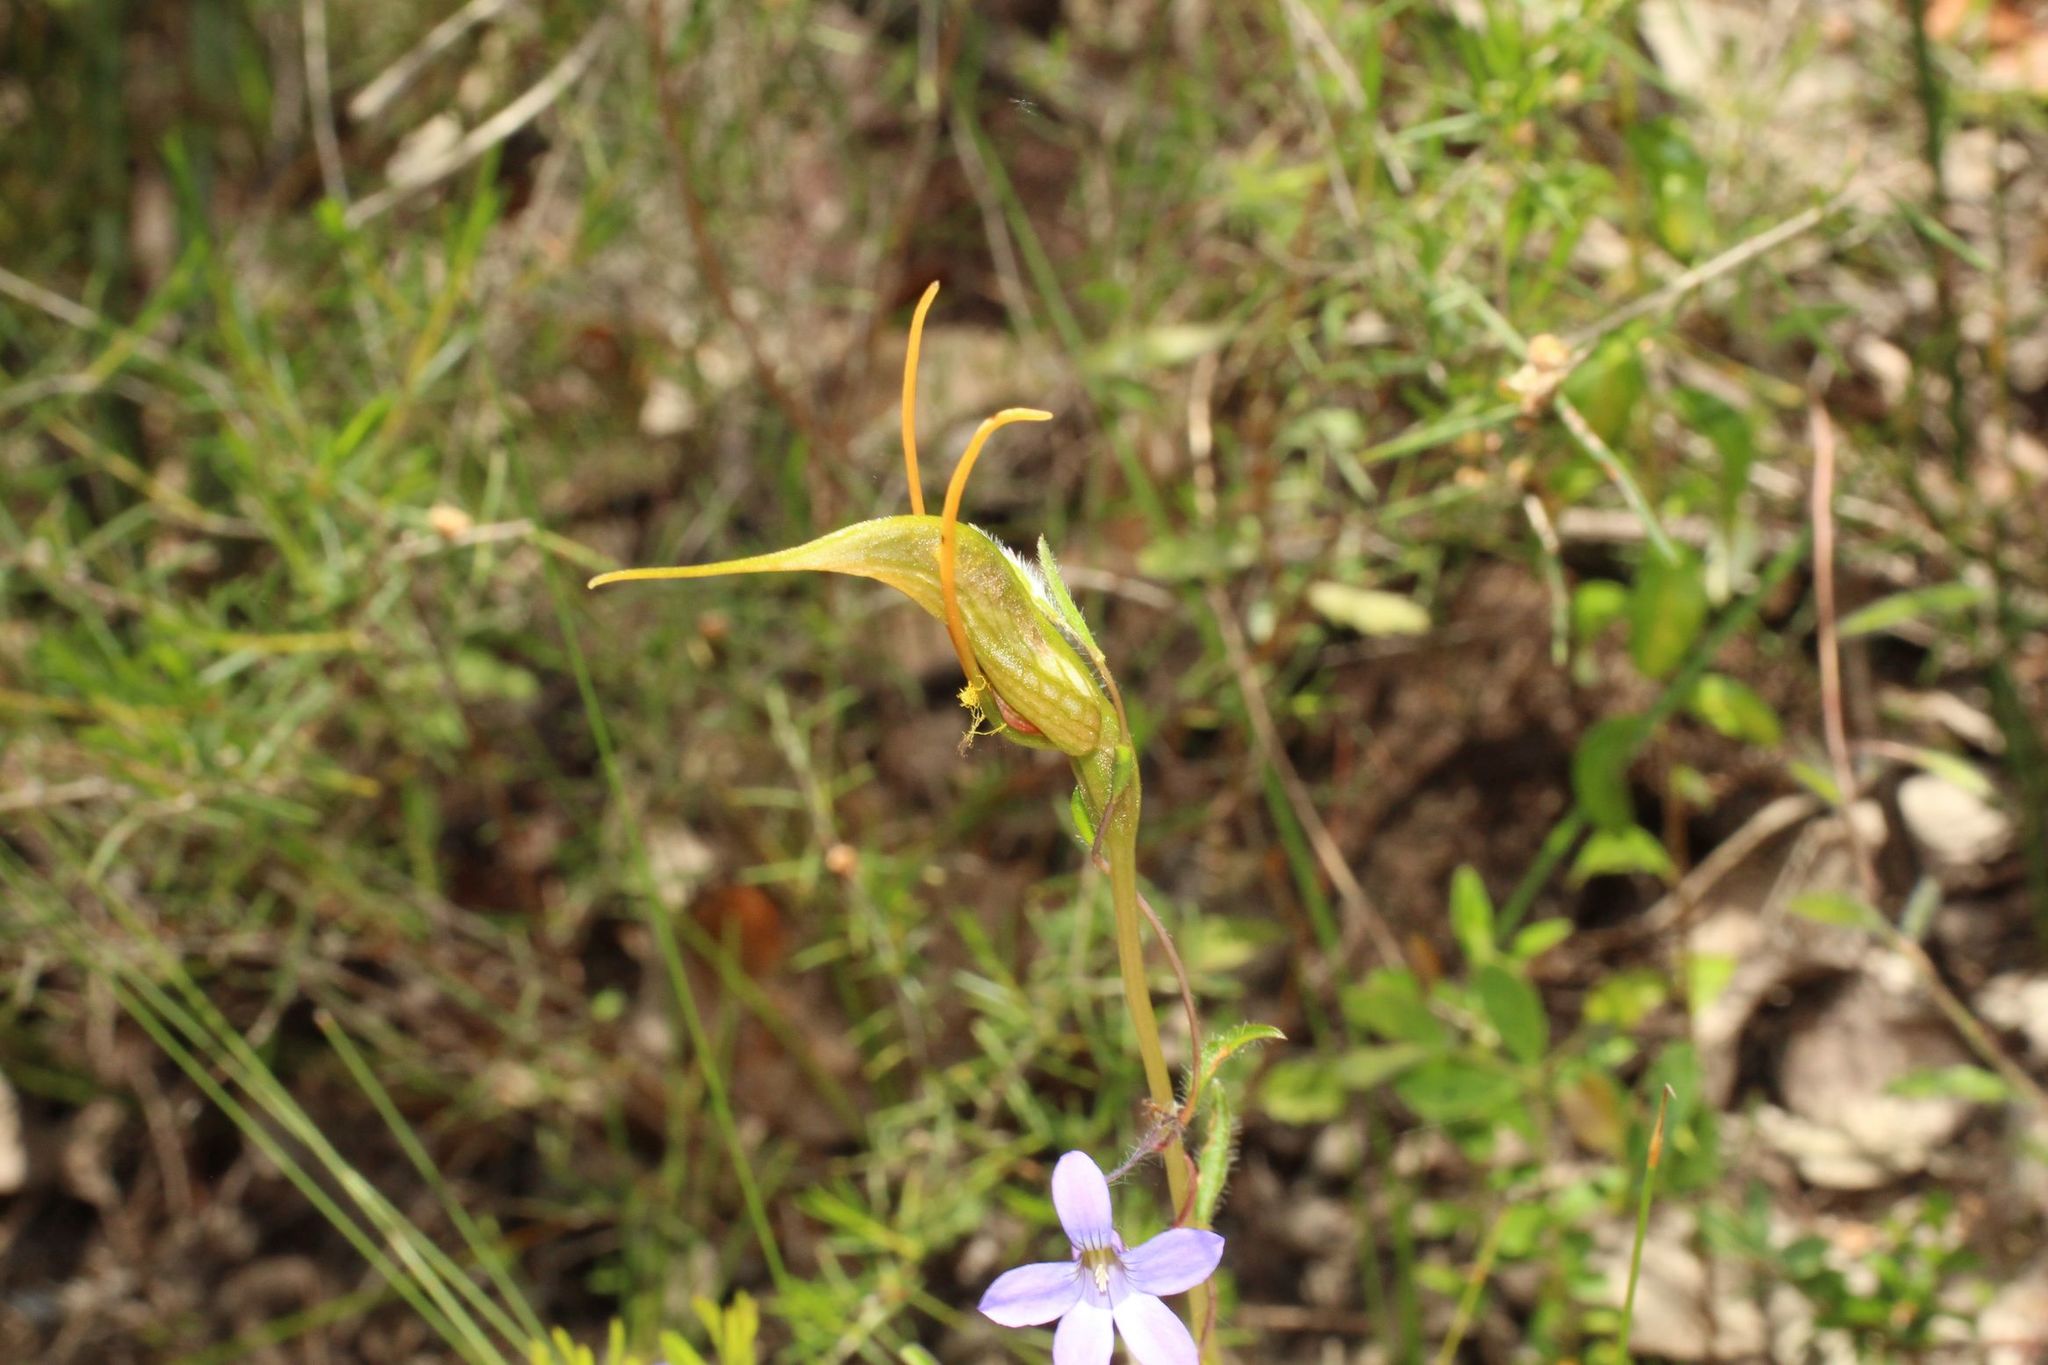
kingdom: Plantae
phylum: Tracheophyta
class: Liliopsida
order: Asparagales
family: Orchidaceae
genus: Pterostylis
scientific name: Pterostylis barbata
